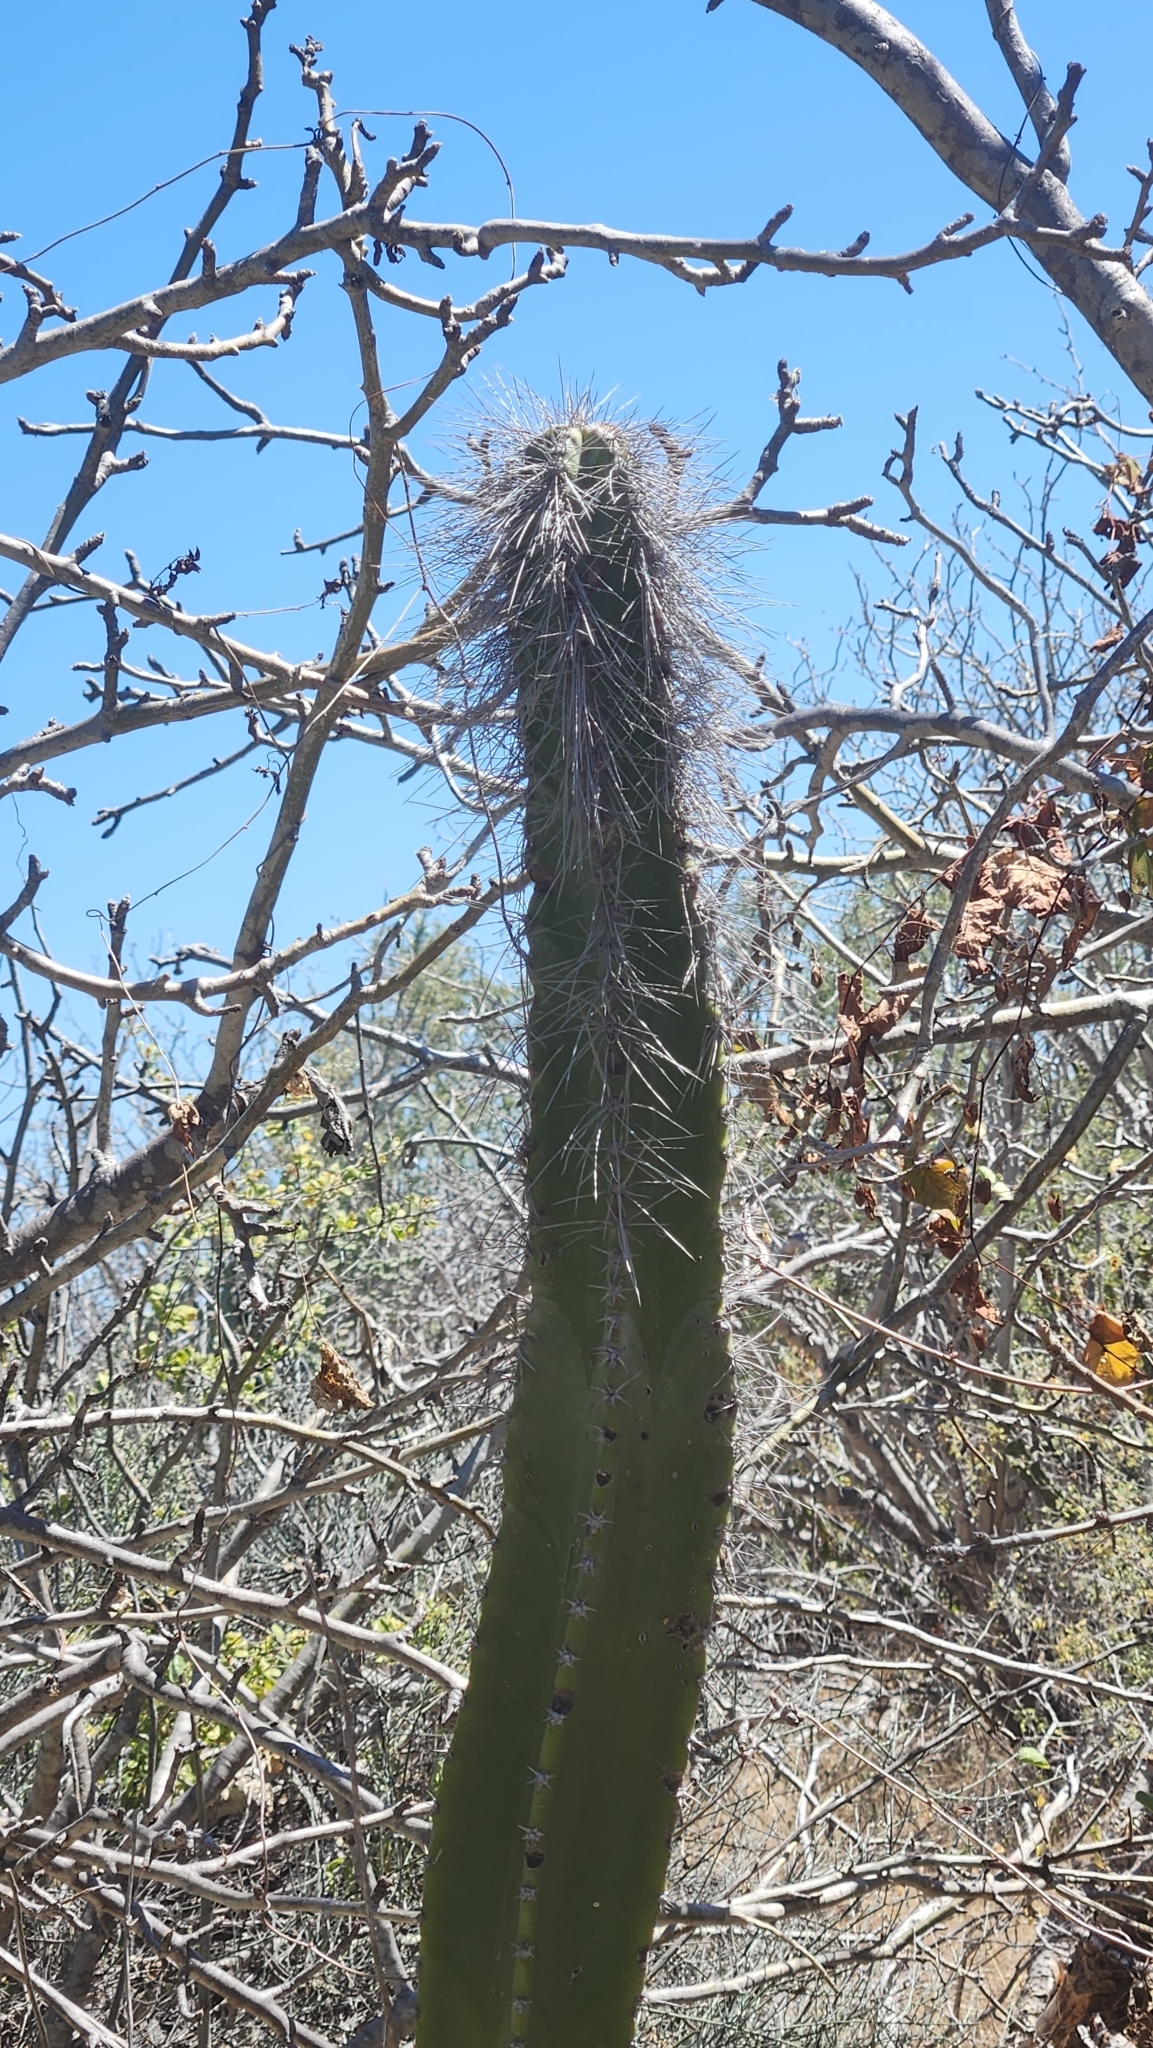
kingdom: Plantae
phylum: Tracheophyta
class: Magnoliopsida
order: Caryophyllales
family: Cactaceae
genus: Pachycereus
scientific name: Pachycereus schottii
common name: Senita cactus
